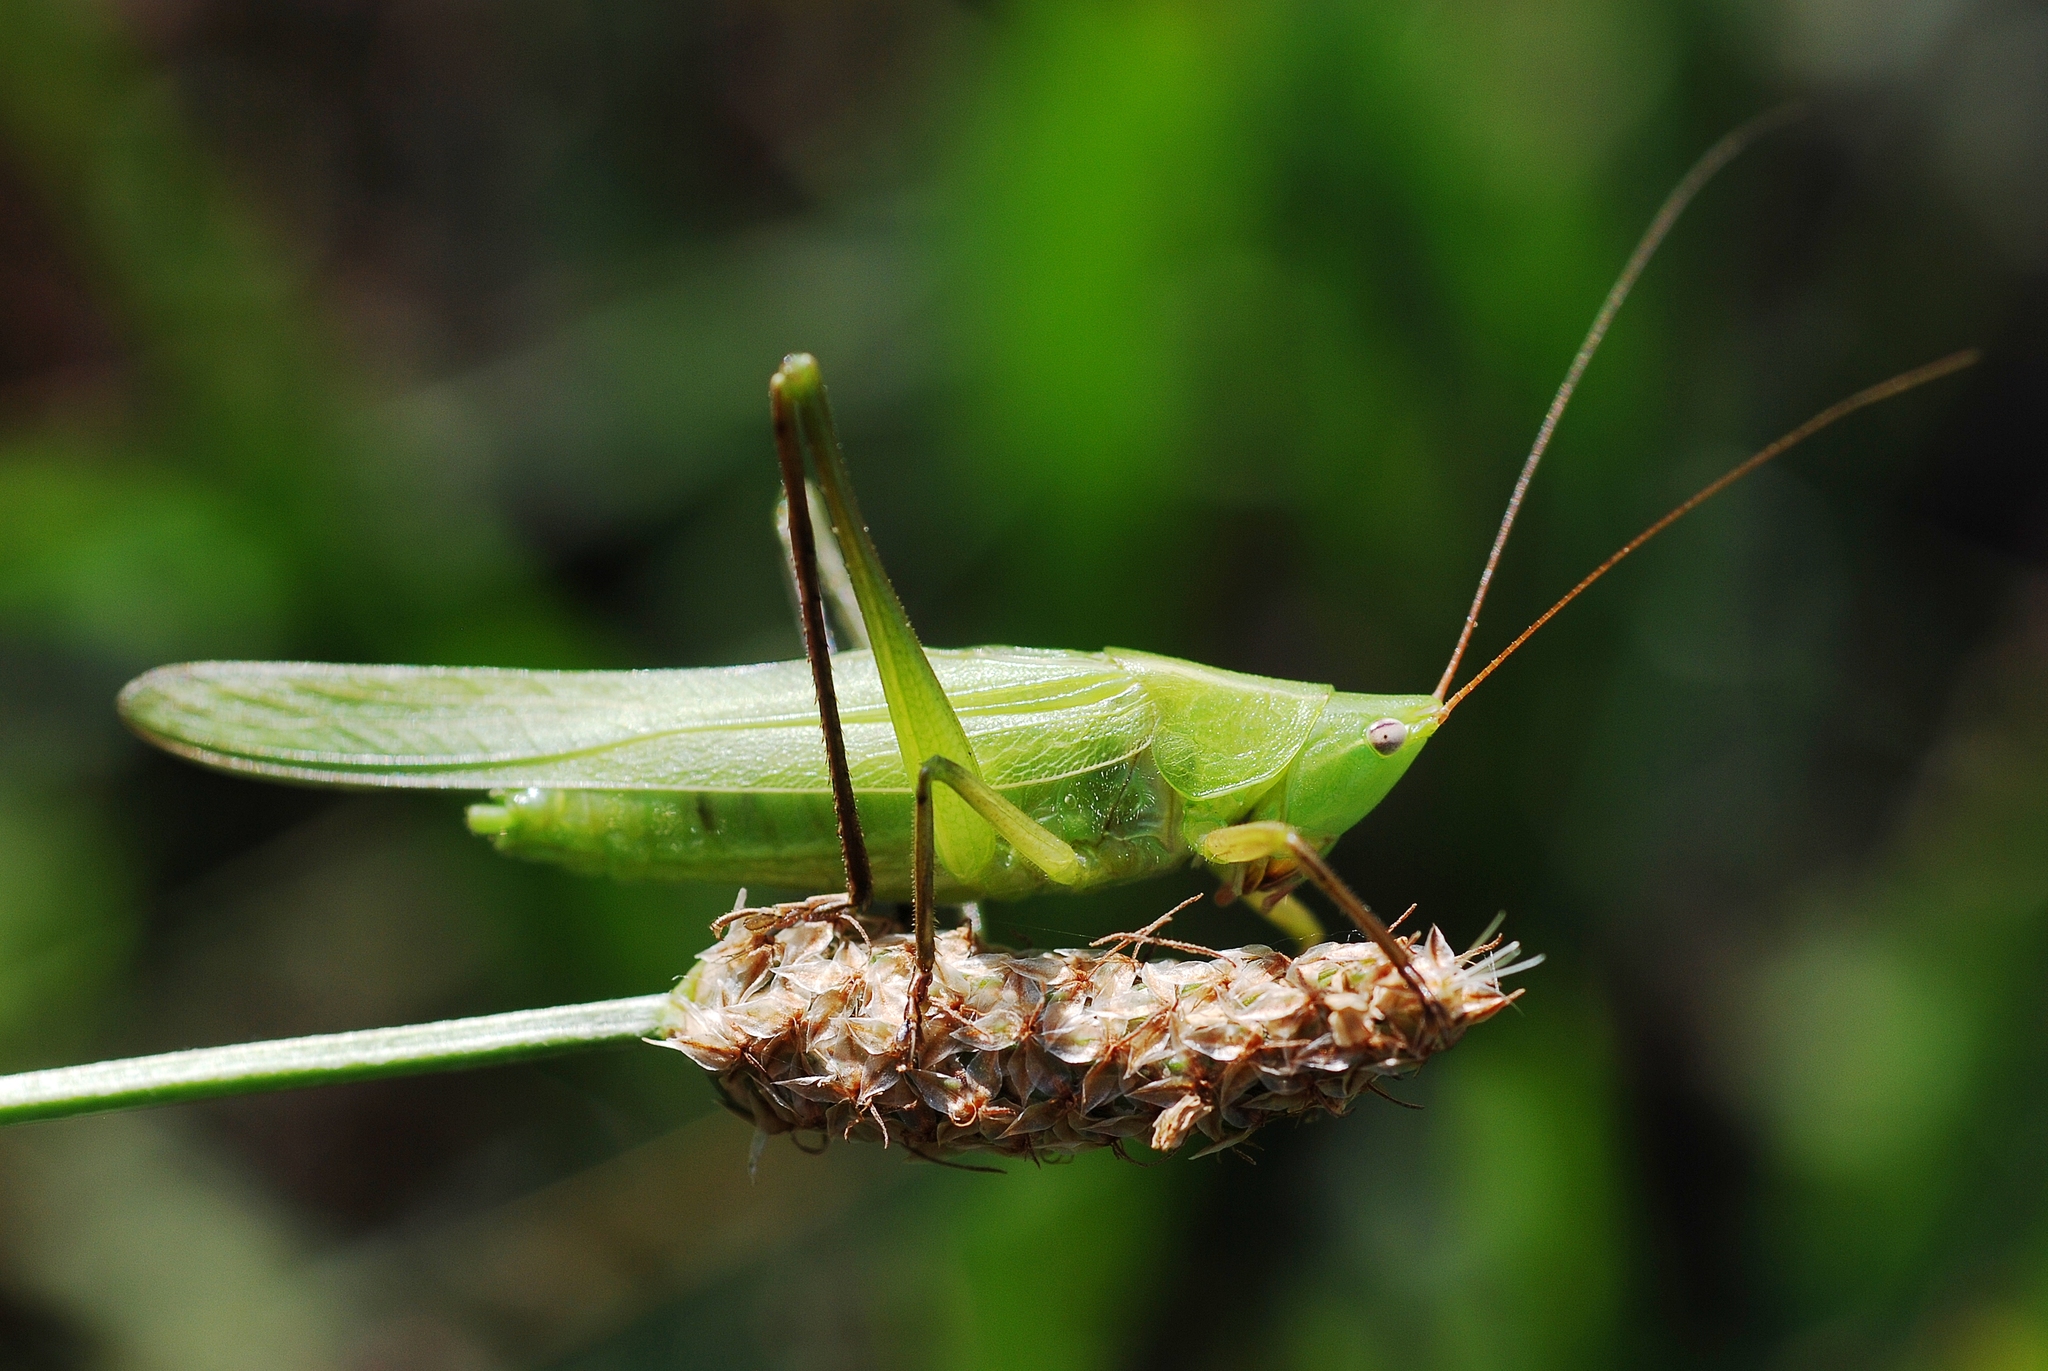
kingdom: Animalia
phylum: Arthropoda
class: Insecta
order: Orthoptera
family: Tettigoniidae
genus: Ruspolia
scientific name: Ruspolia nitidula
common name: Large conehead
